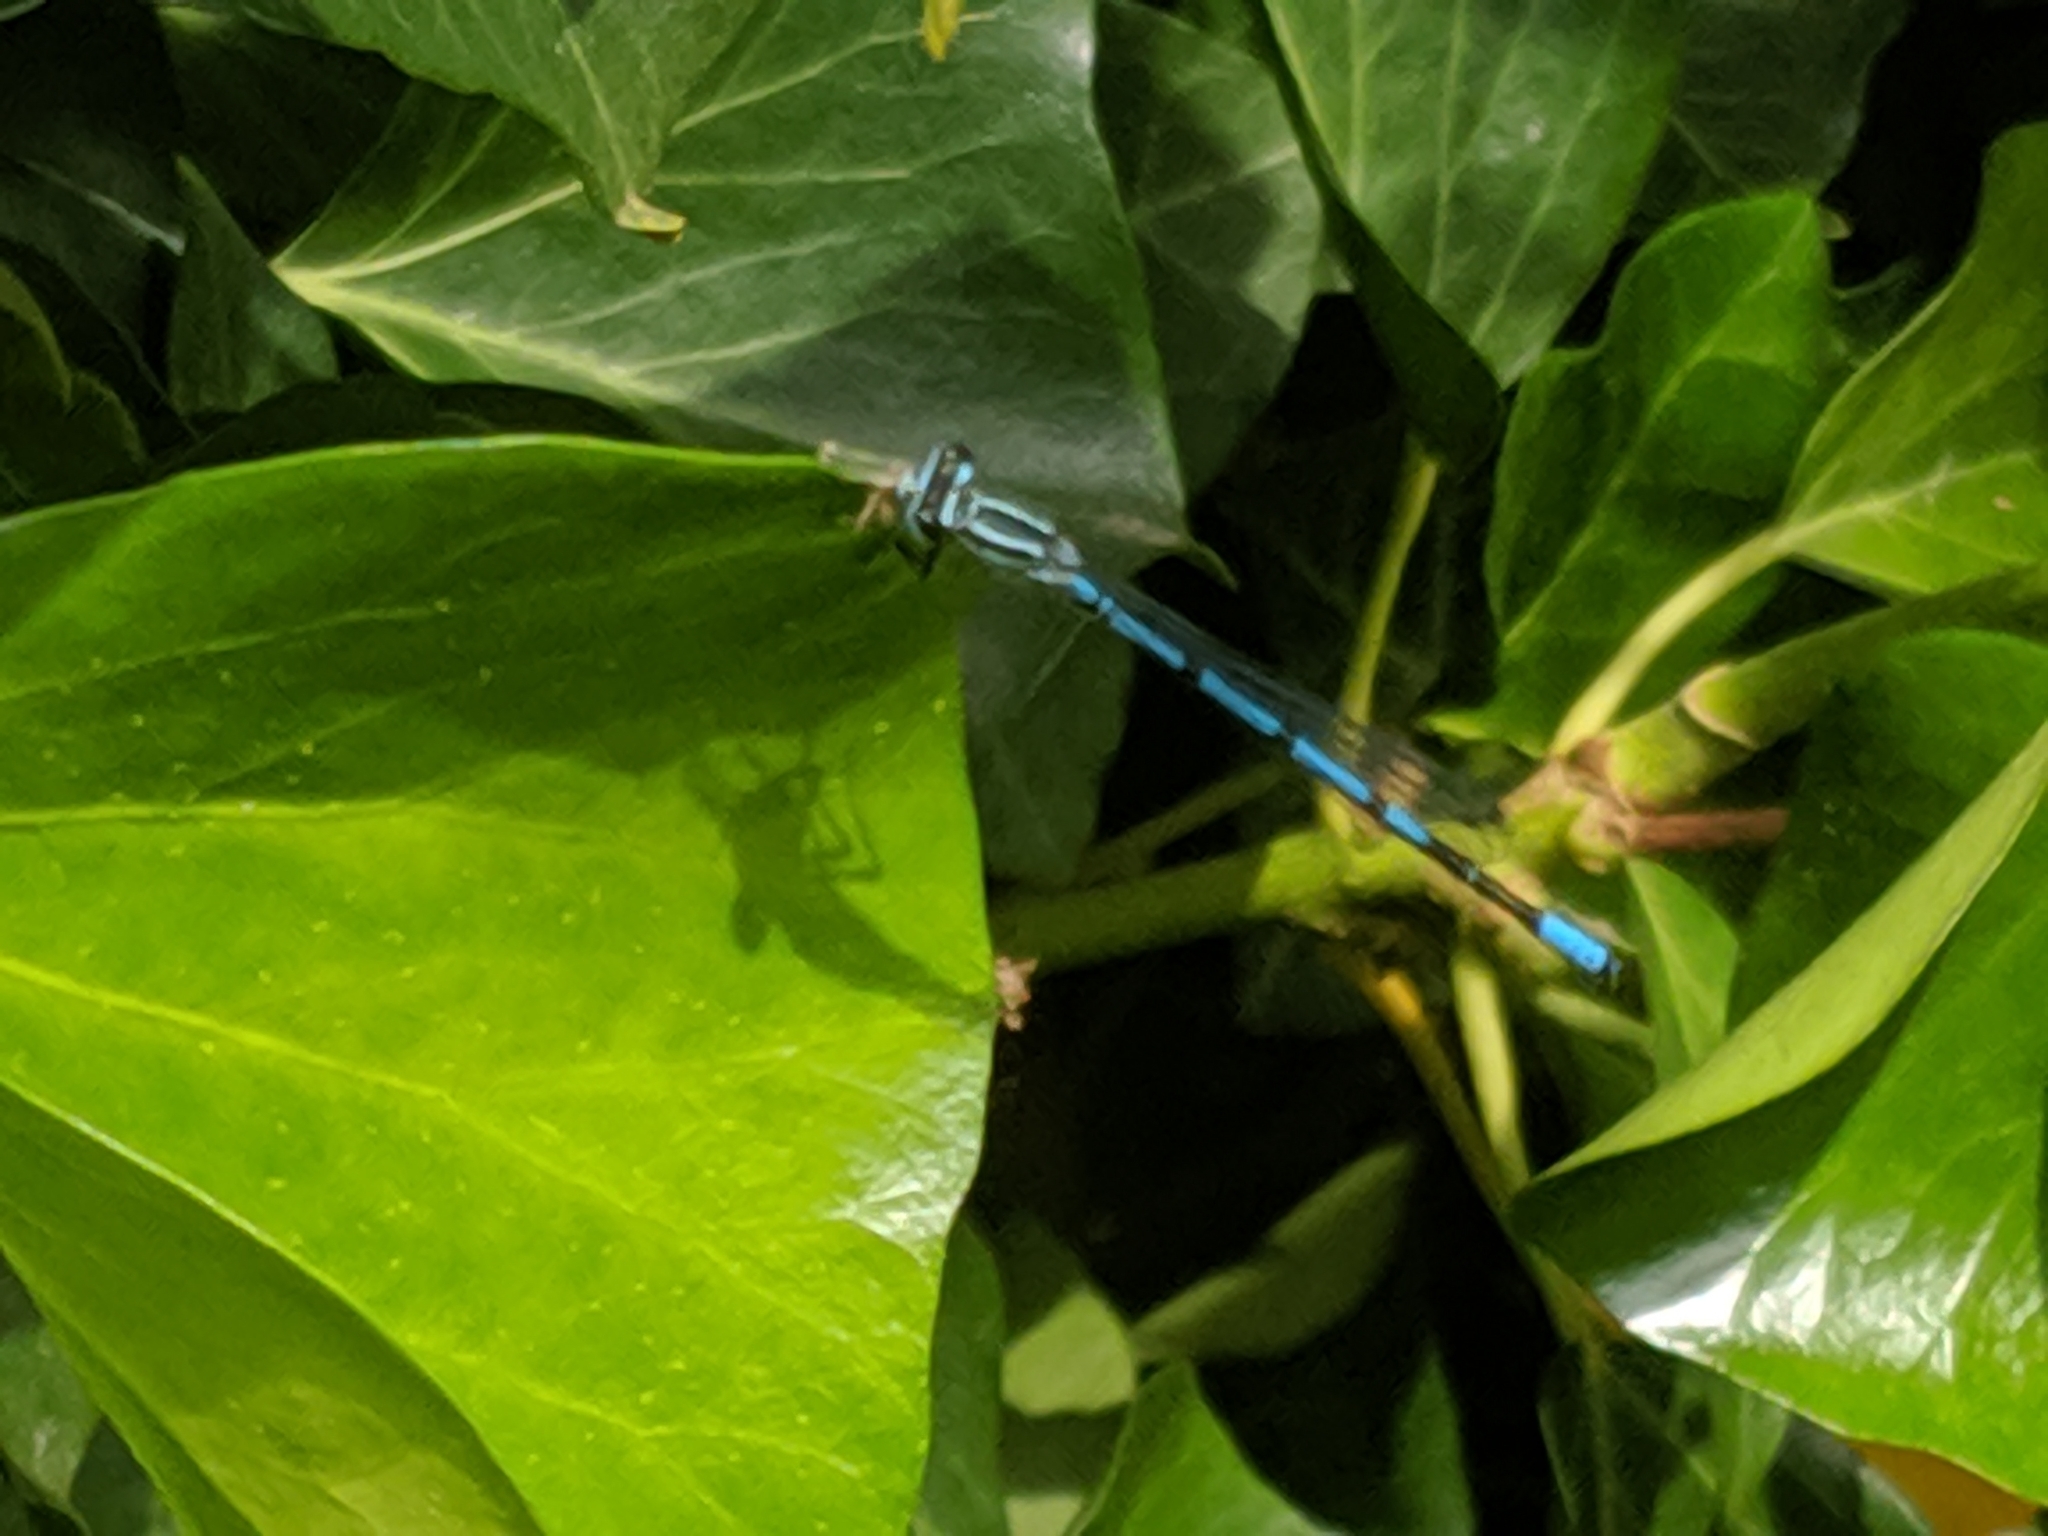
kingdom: Animalia
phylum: Arthropoda
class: Insecta
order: Odonata
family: Coenagrionidae
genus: Coenagrion
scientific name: Coenagrion puella
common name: Azure damselfly
